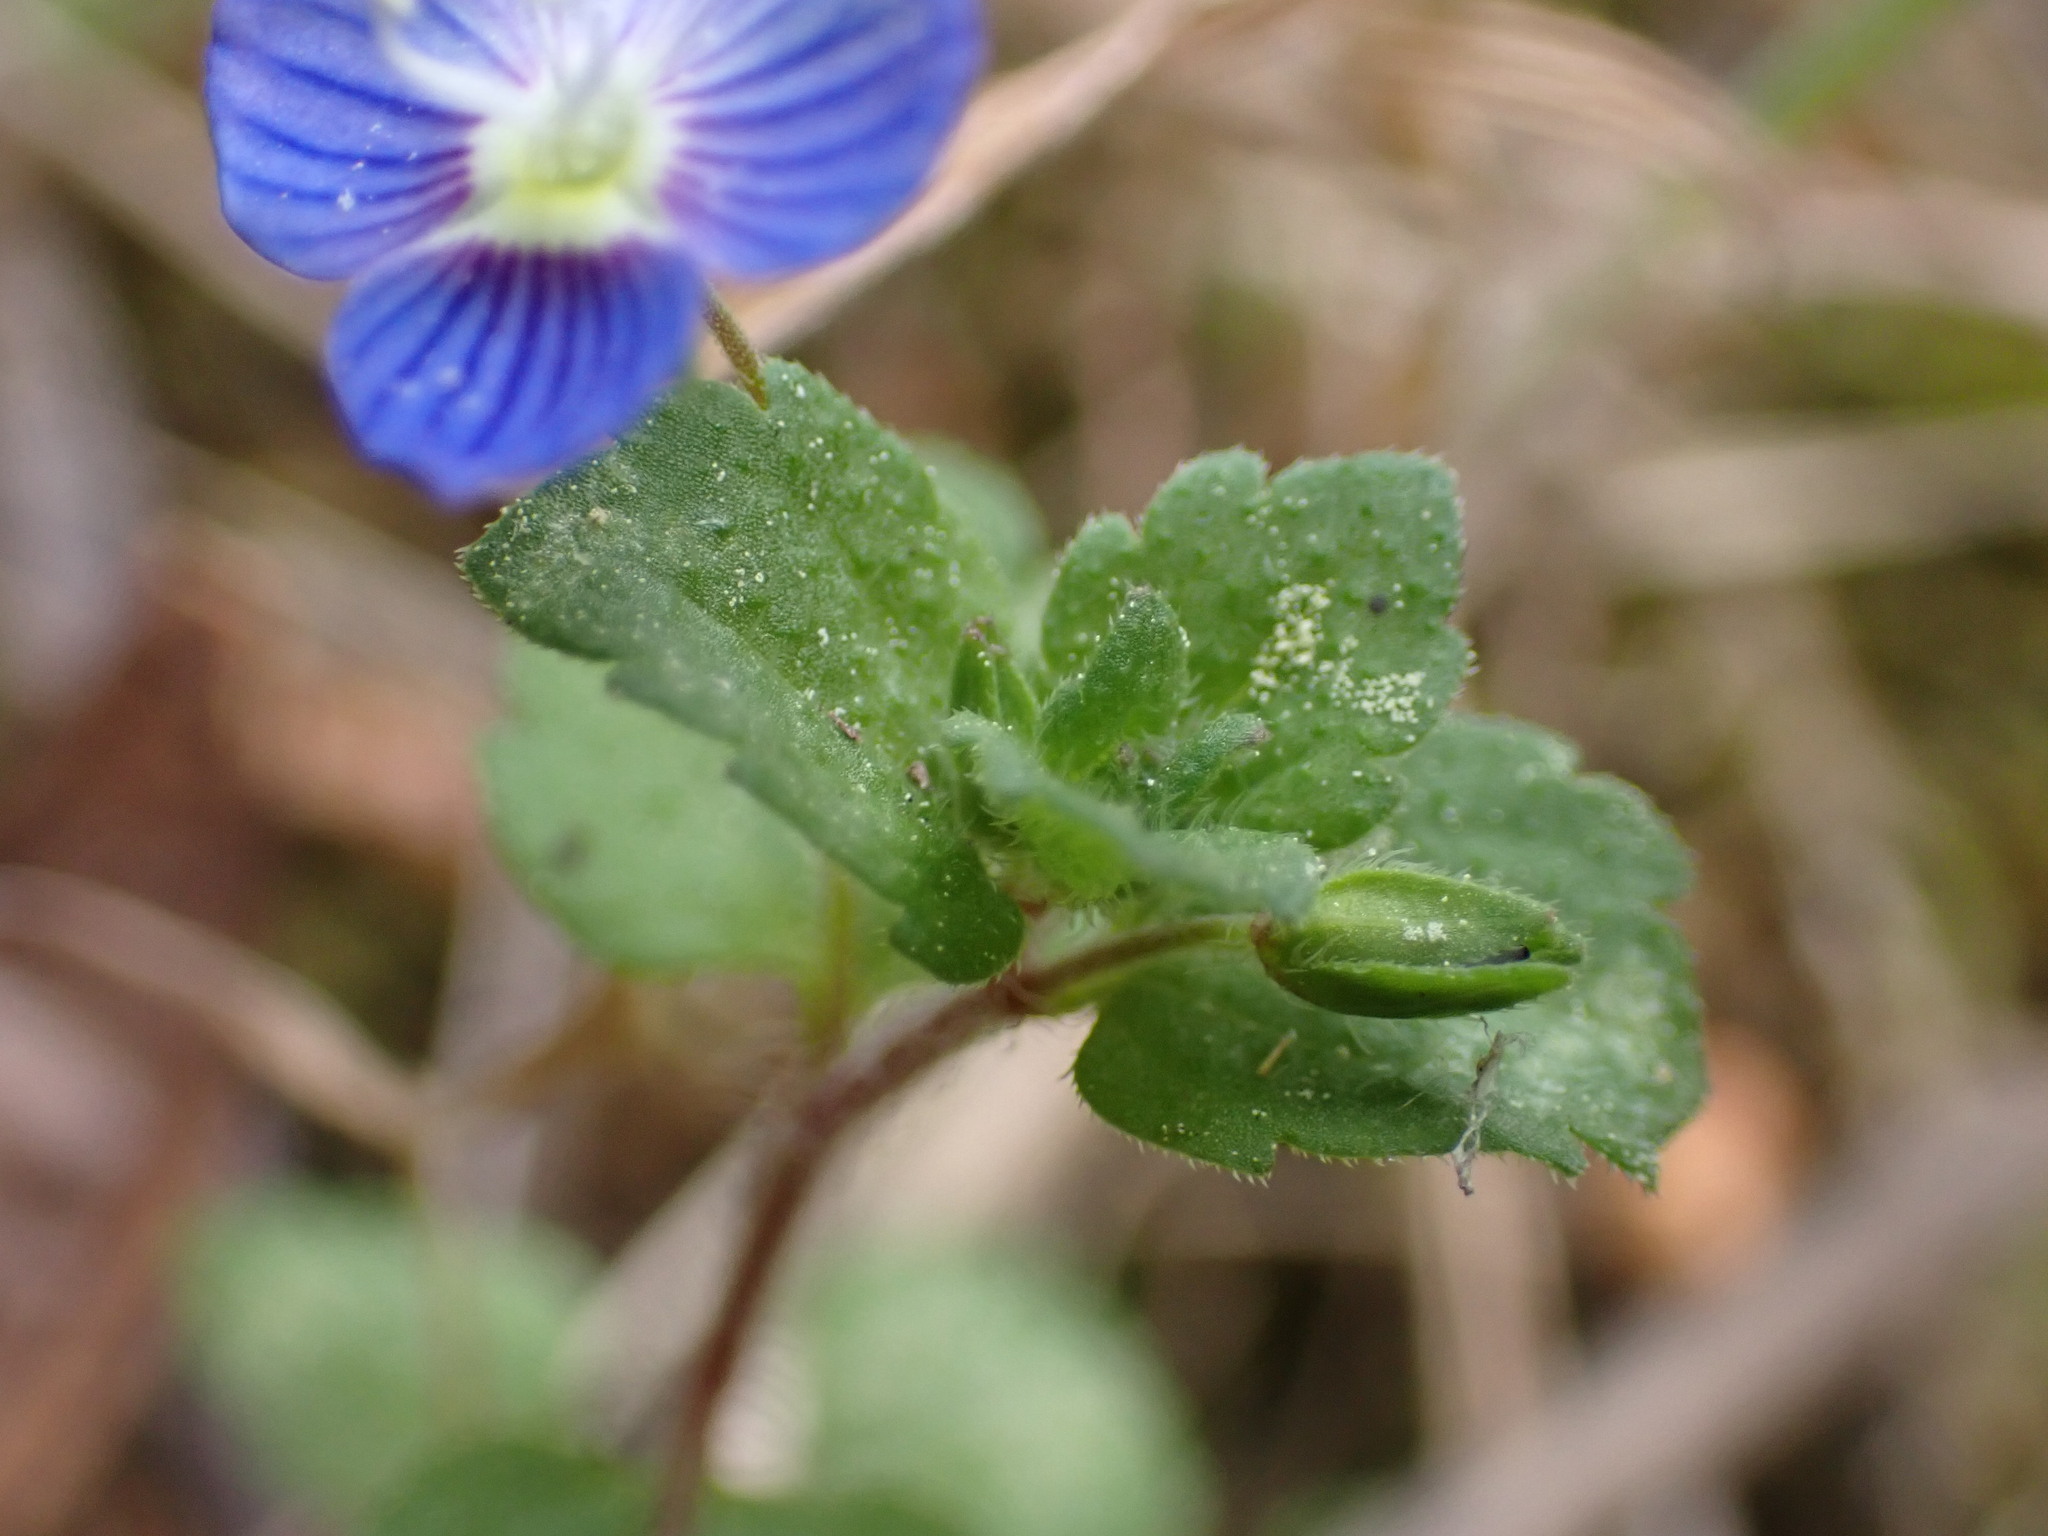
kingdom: Plantae
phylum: Tracheophyta
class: Magnoliopsida
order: Lamiales
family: Plantaginaceae
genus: Veronica
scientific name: Veronica persica
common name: Common field-speedwell
